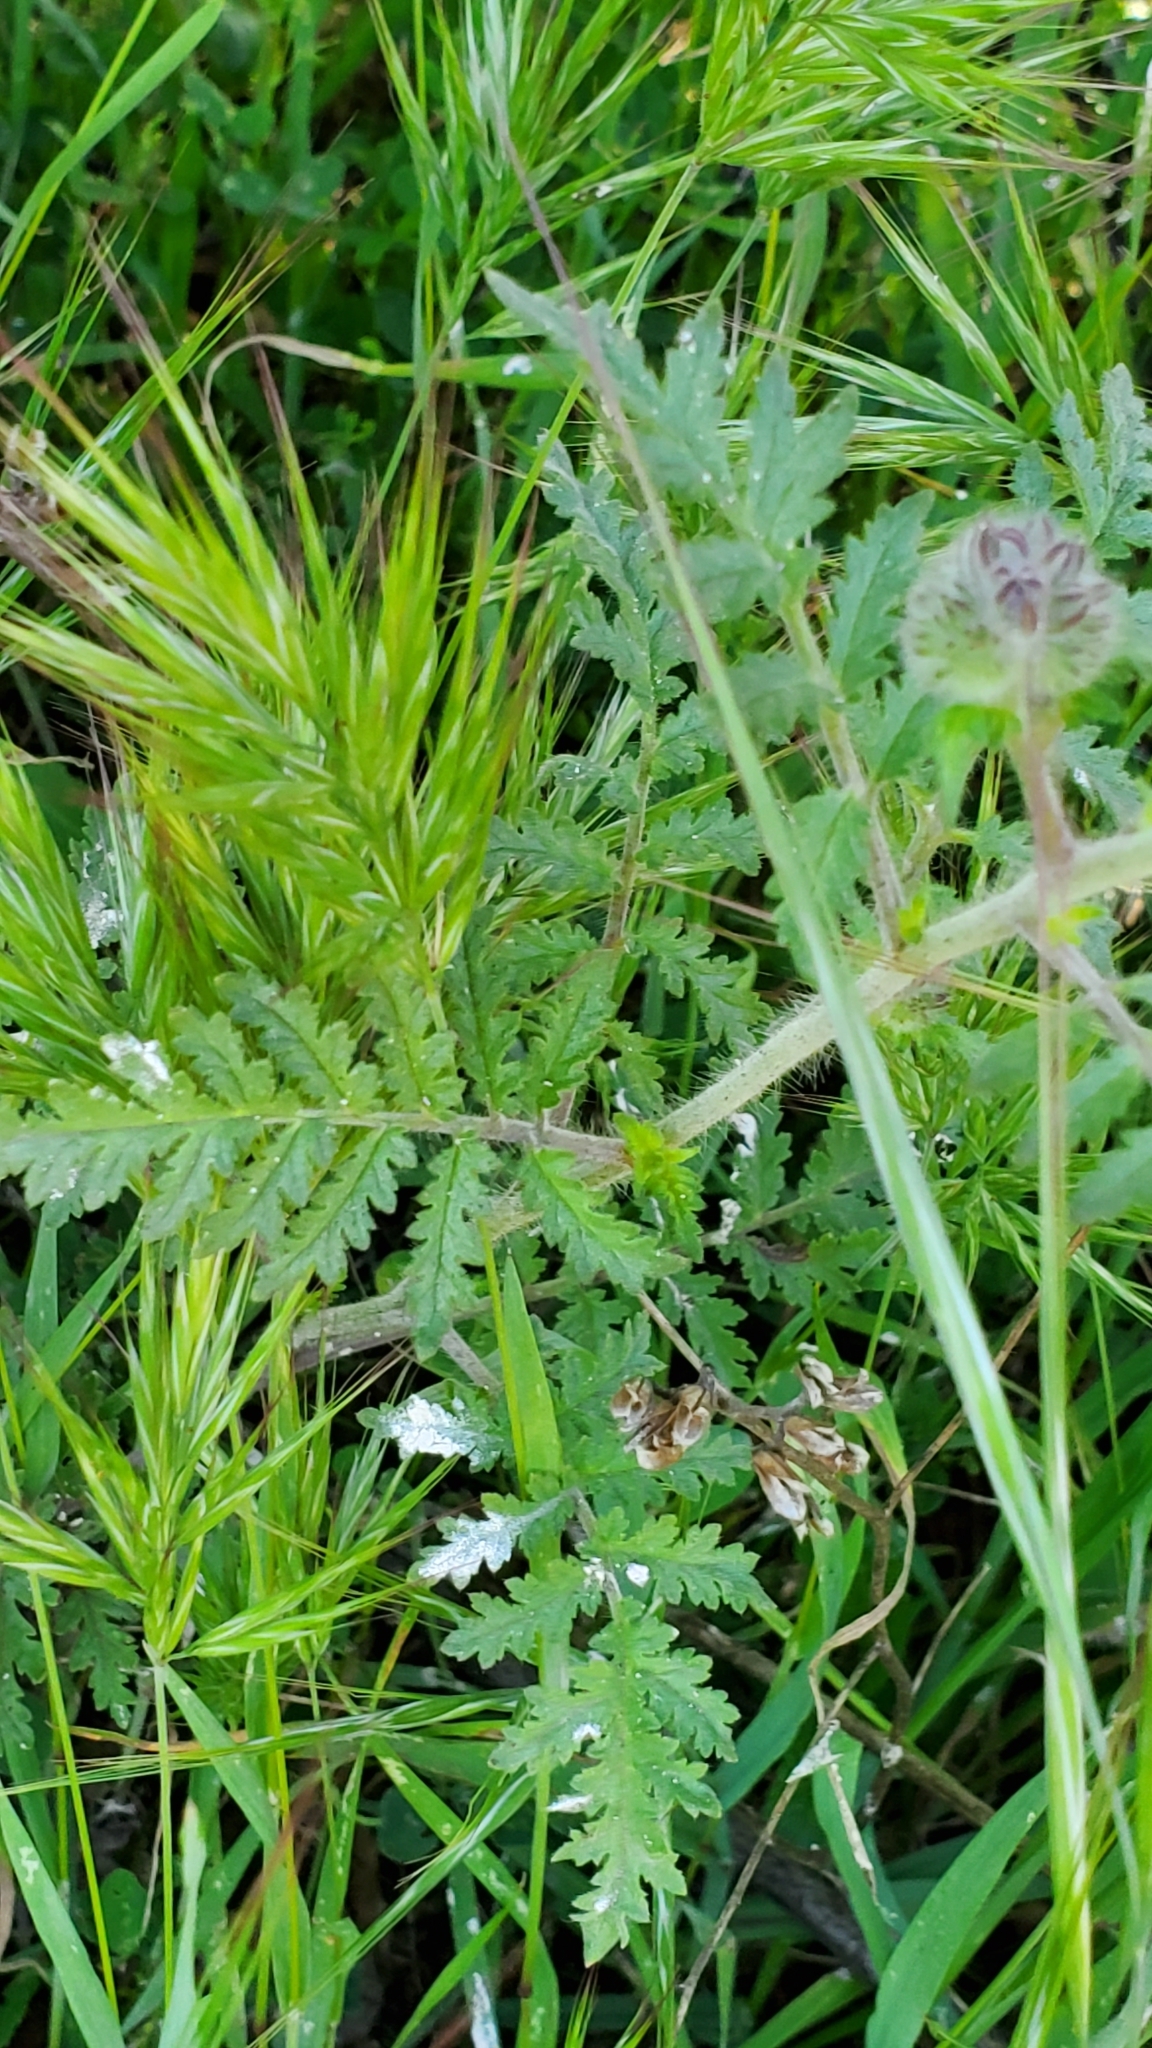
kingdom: Plantae
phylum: Tracheophyta
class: Magnoliopsida
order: Boraginales
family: Hydrophyllaceae
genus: Phacelia
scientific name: Phacelia hubbyi
